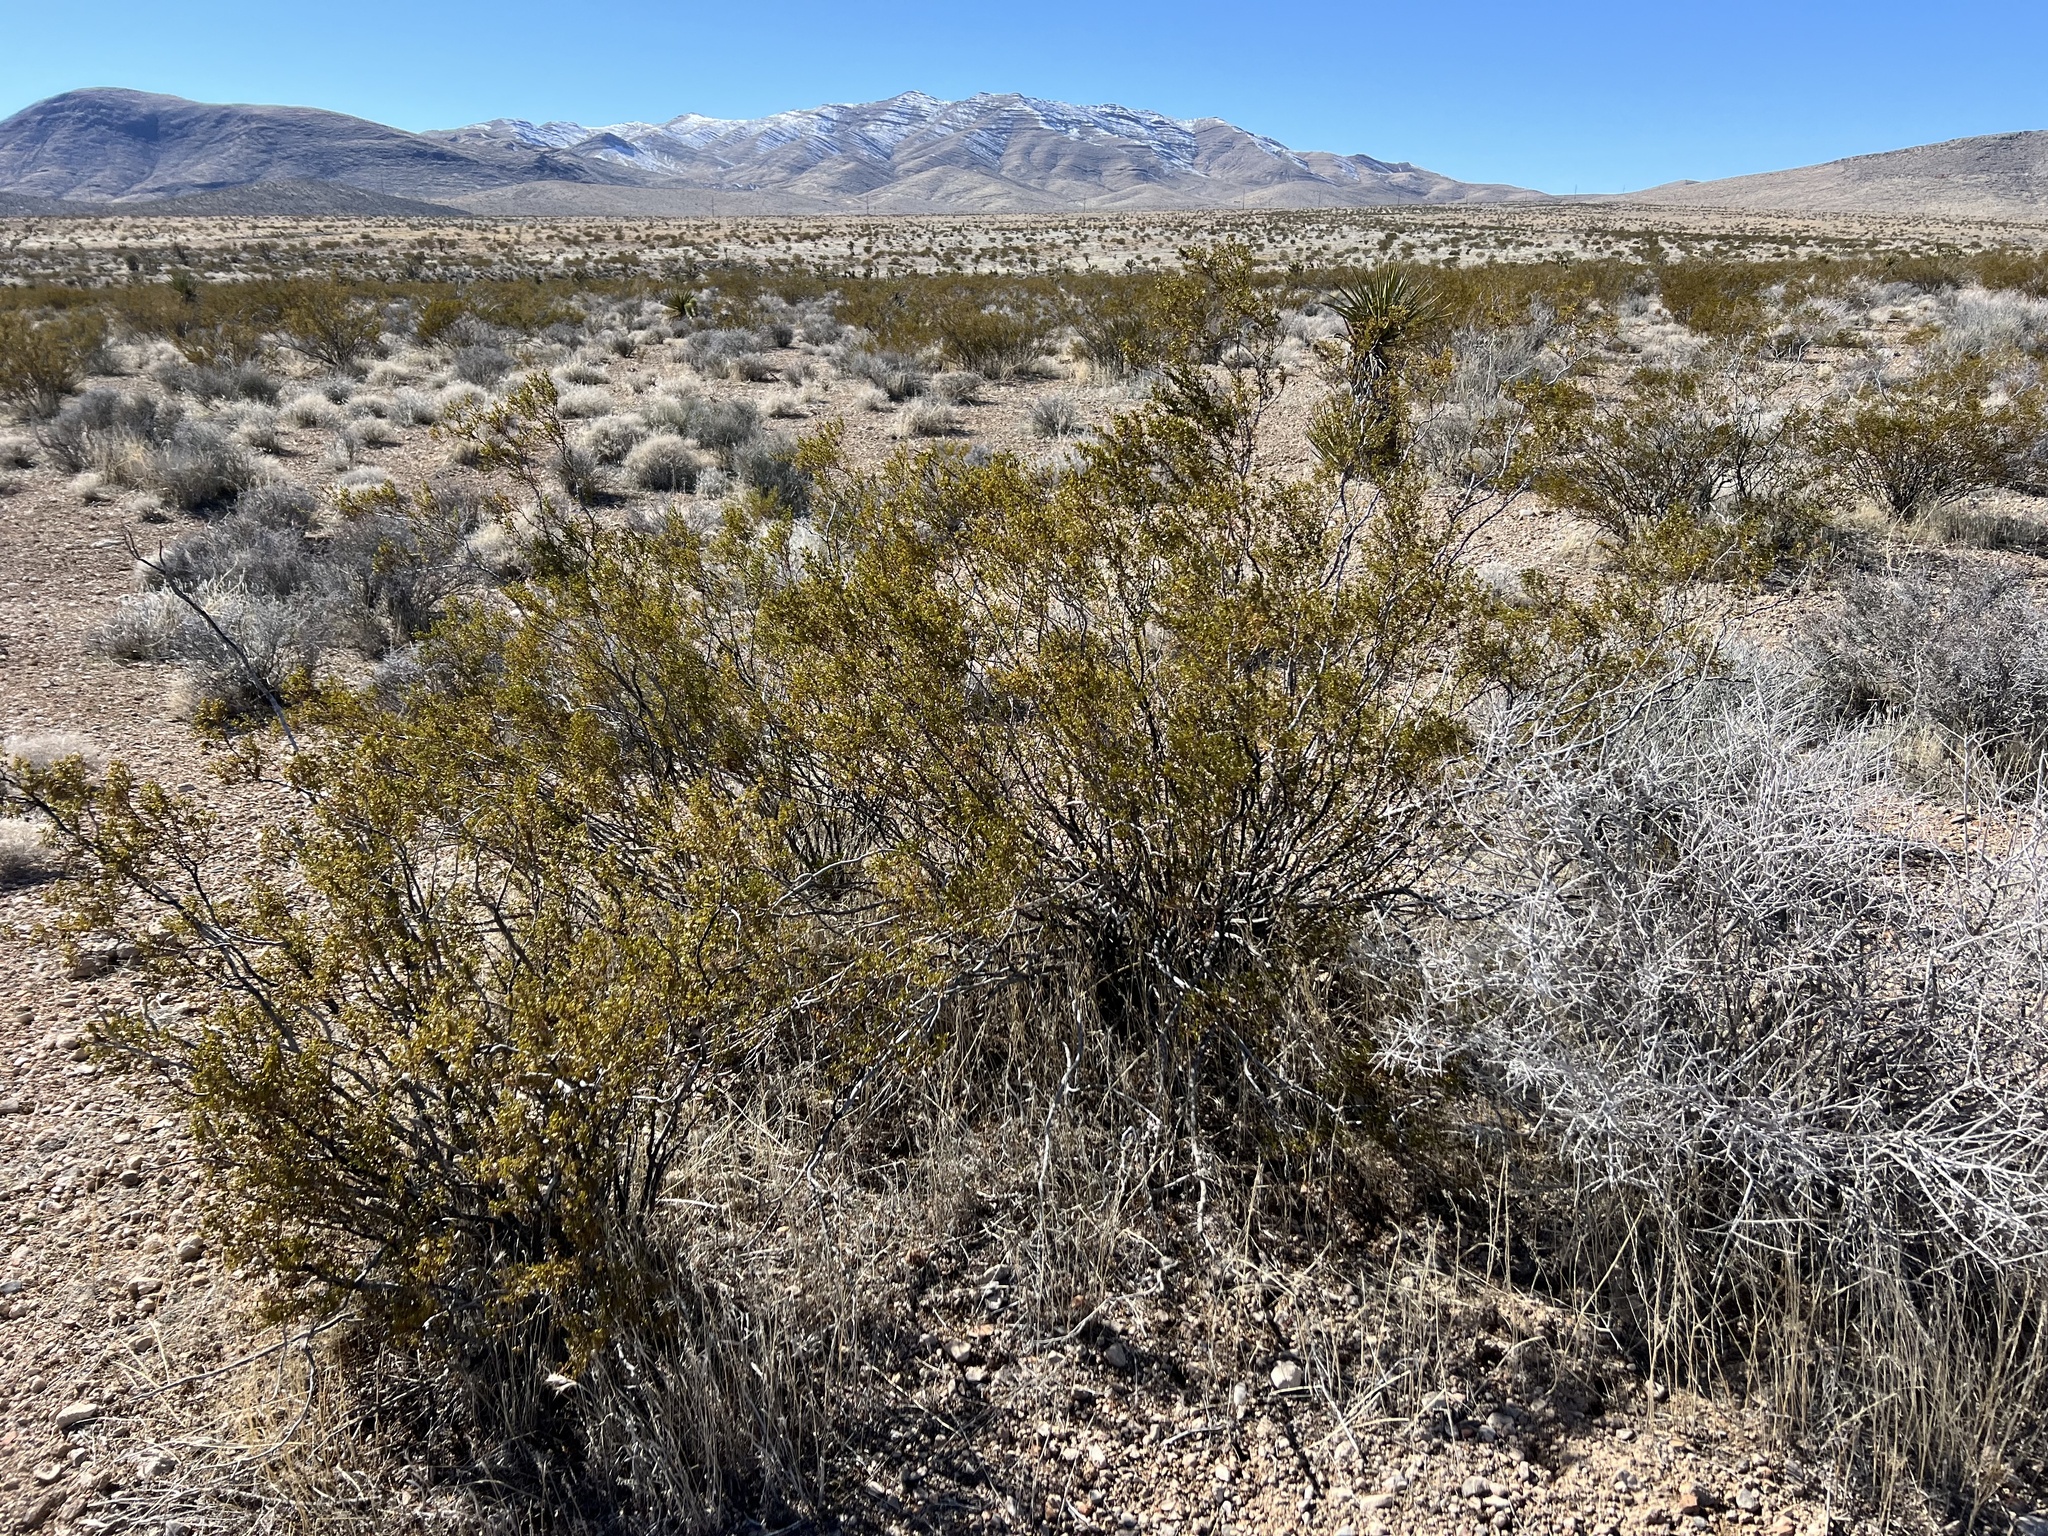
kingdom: Plantae
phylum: Tracheophyta
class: Magnoliopsida
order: Zygophyllales
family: Zygophyllaceae
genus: Larrea
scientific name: Larrea tridentata
